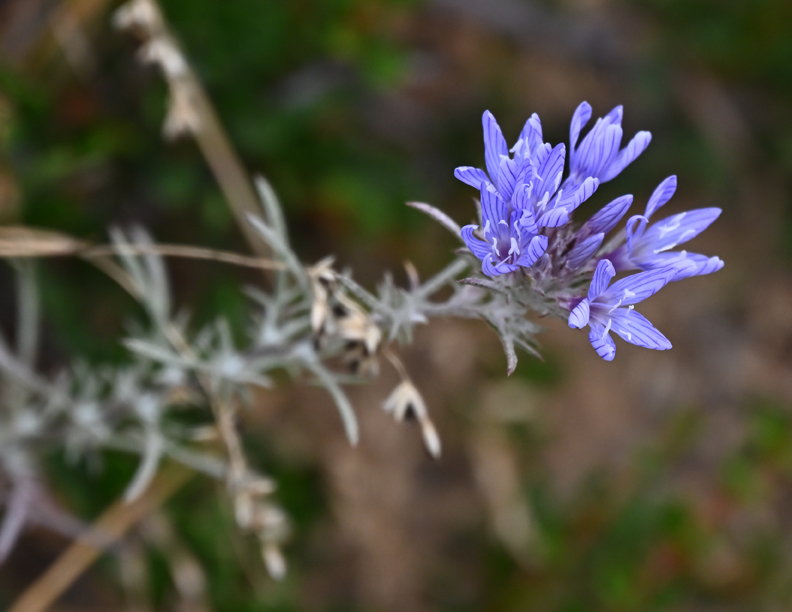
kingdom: Plantae
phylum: Tracheophyta
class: Magnoliopsida
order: Ericales
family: Polemoniaceae
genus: Eriastrum
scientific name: Eriastrum densifolium
